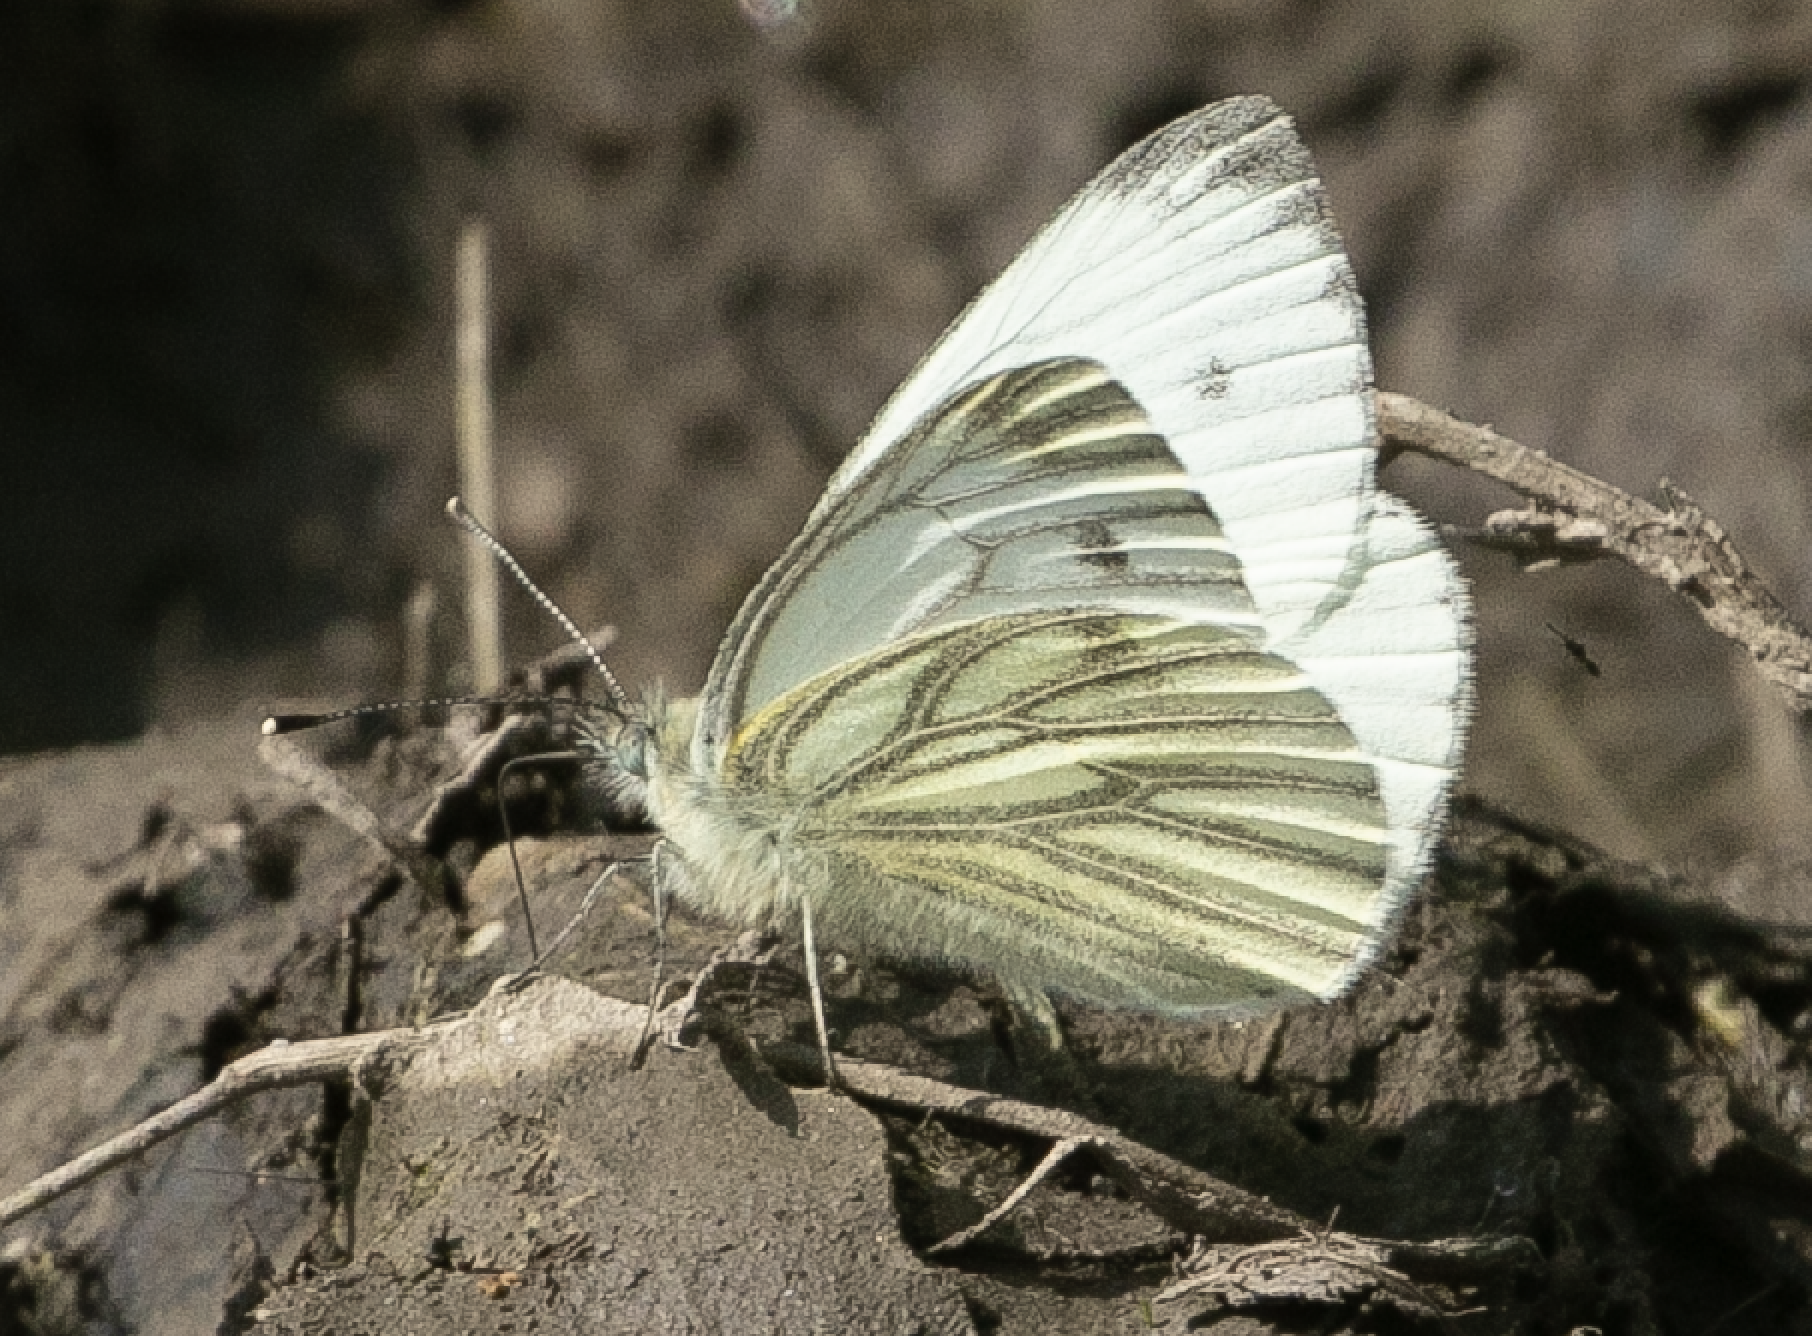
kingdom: Animalia
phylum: Arthropoda
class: Insecta
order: Lepidoptera
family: Pieridae
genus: Pieris
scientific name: Pieris napi
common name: Green-veined white
